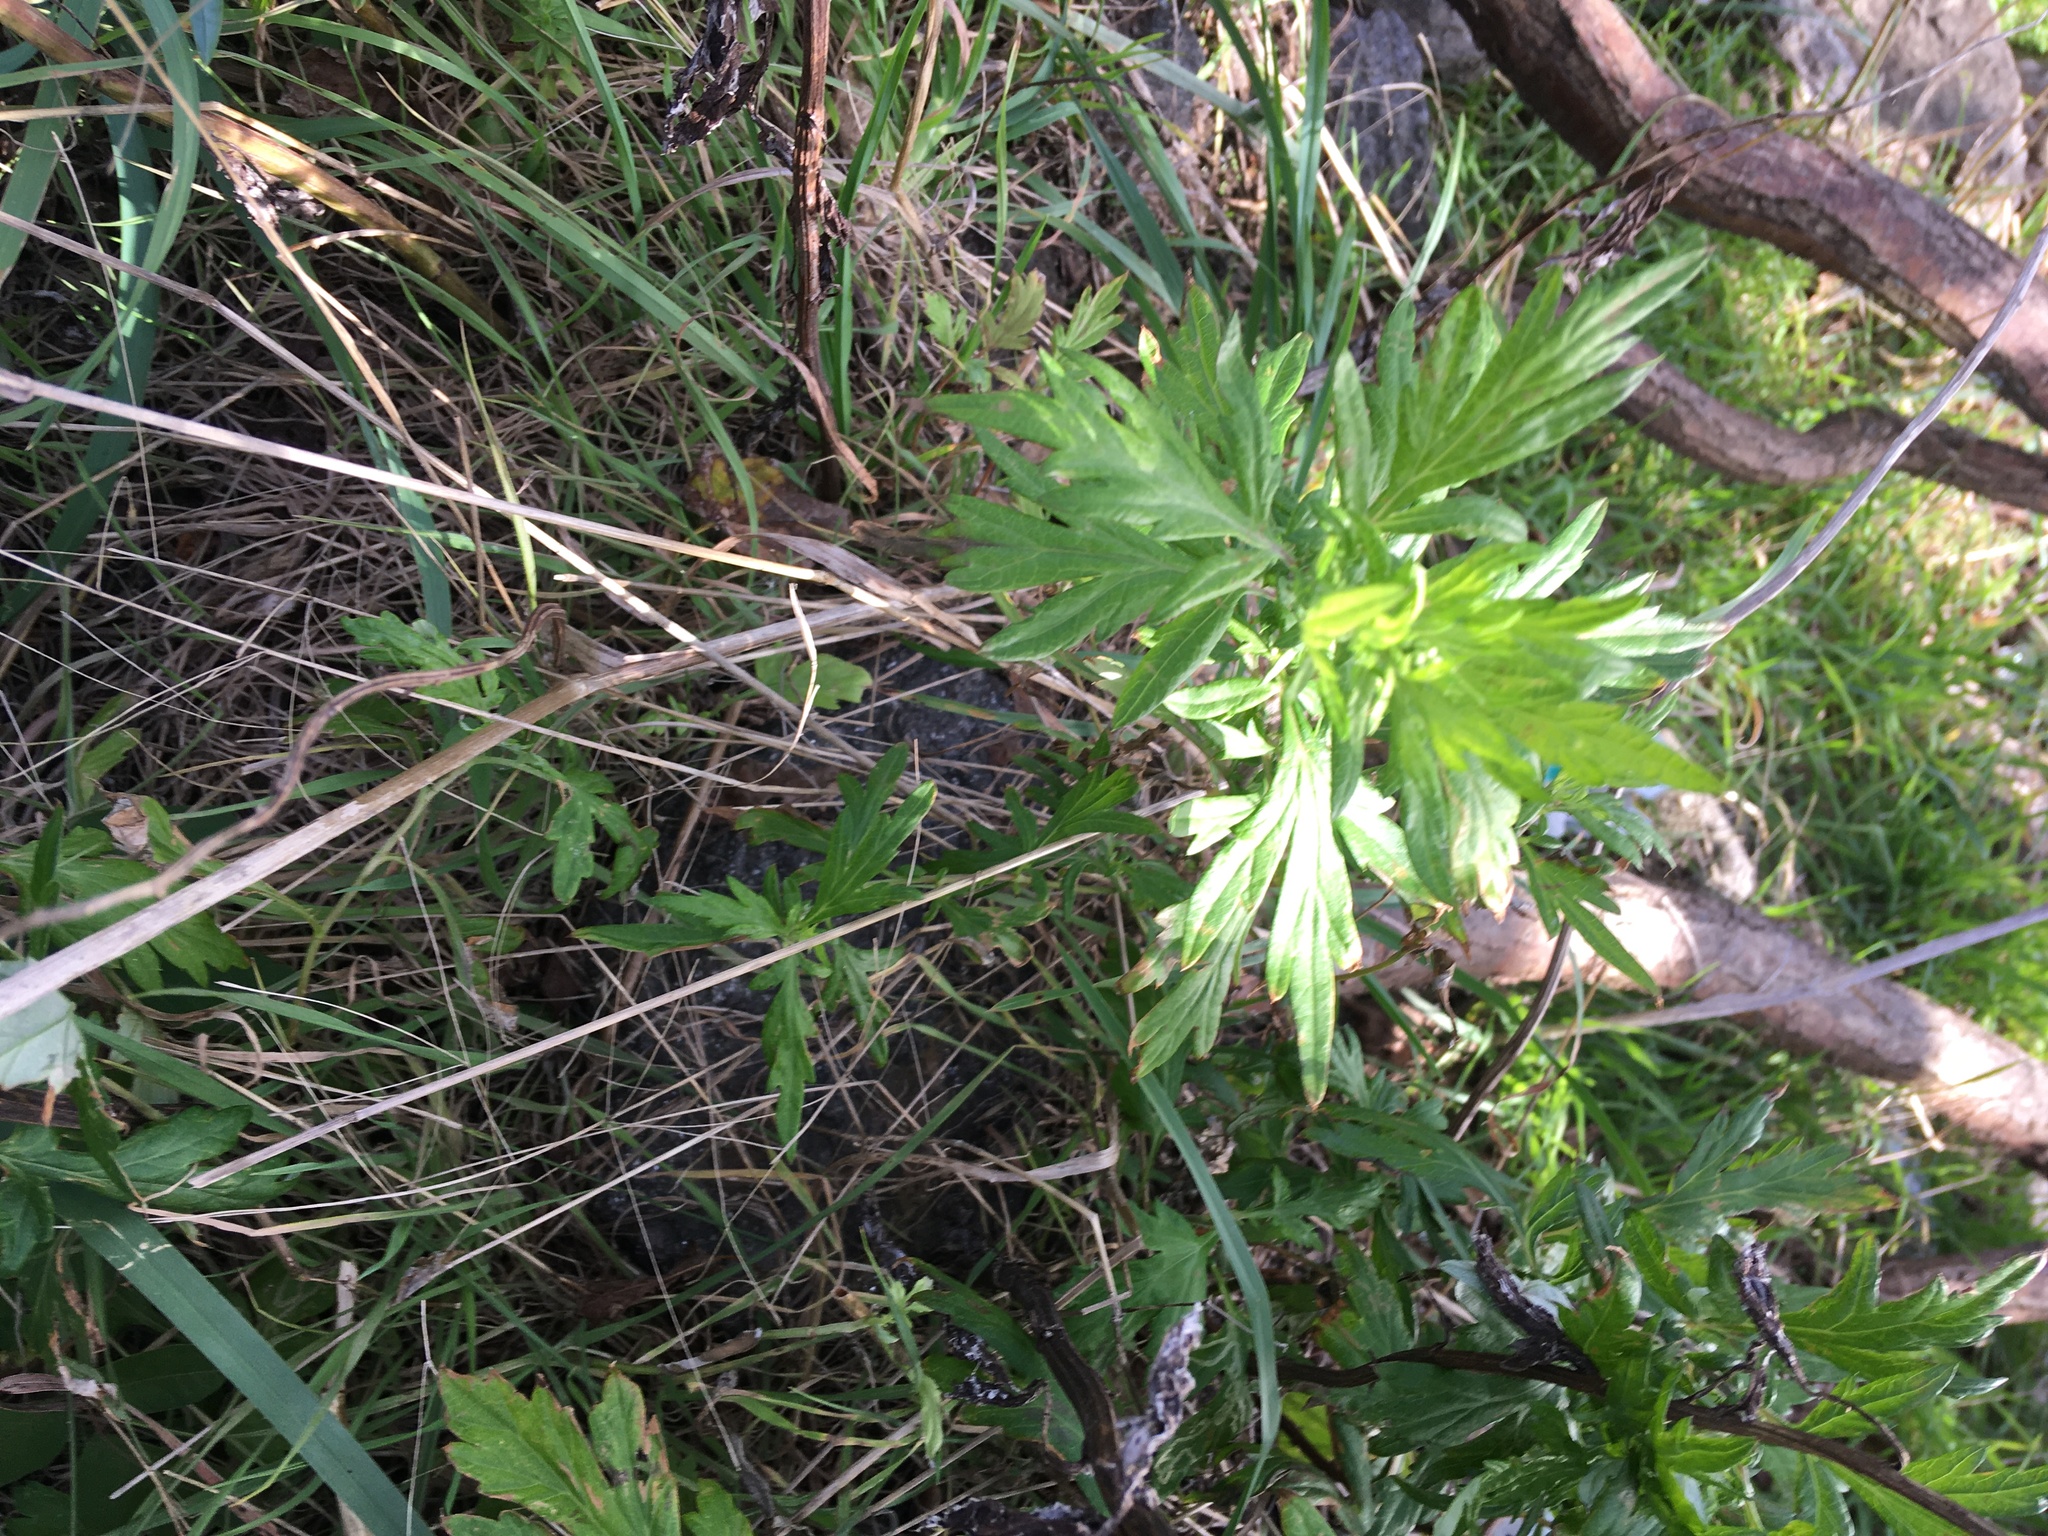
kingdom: Plantae
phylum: Tracheophyta
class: Magnoliopsida
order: Asterales
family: Asteraceae
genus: Artemisia
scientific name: Artemisia vulgaris
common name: Mugwort
